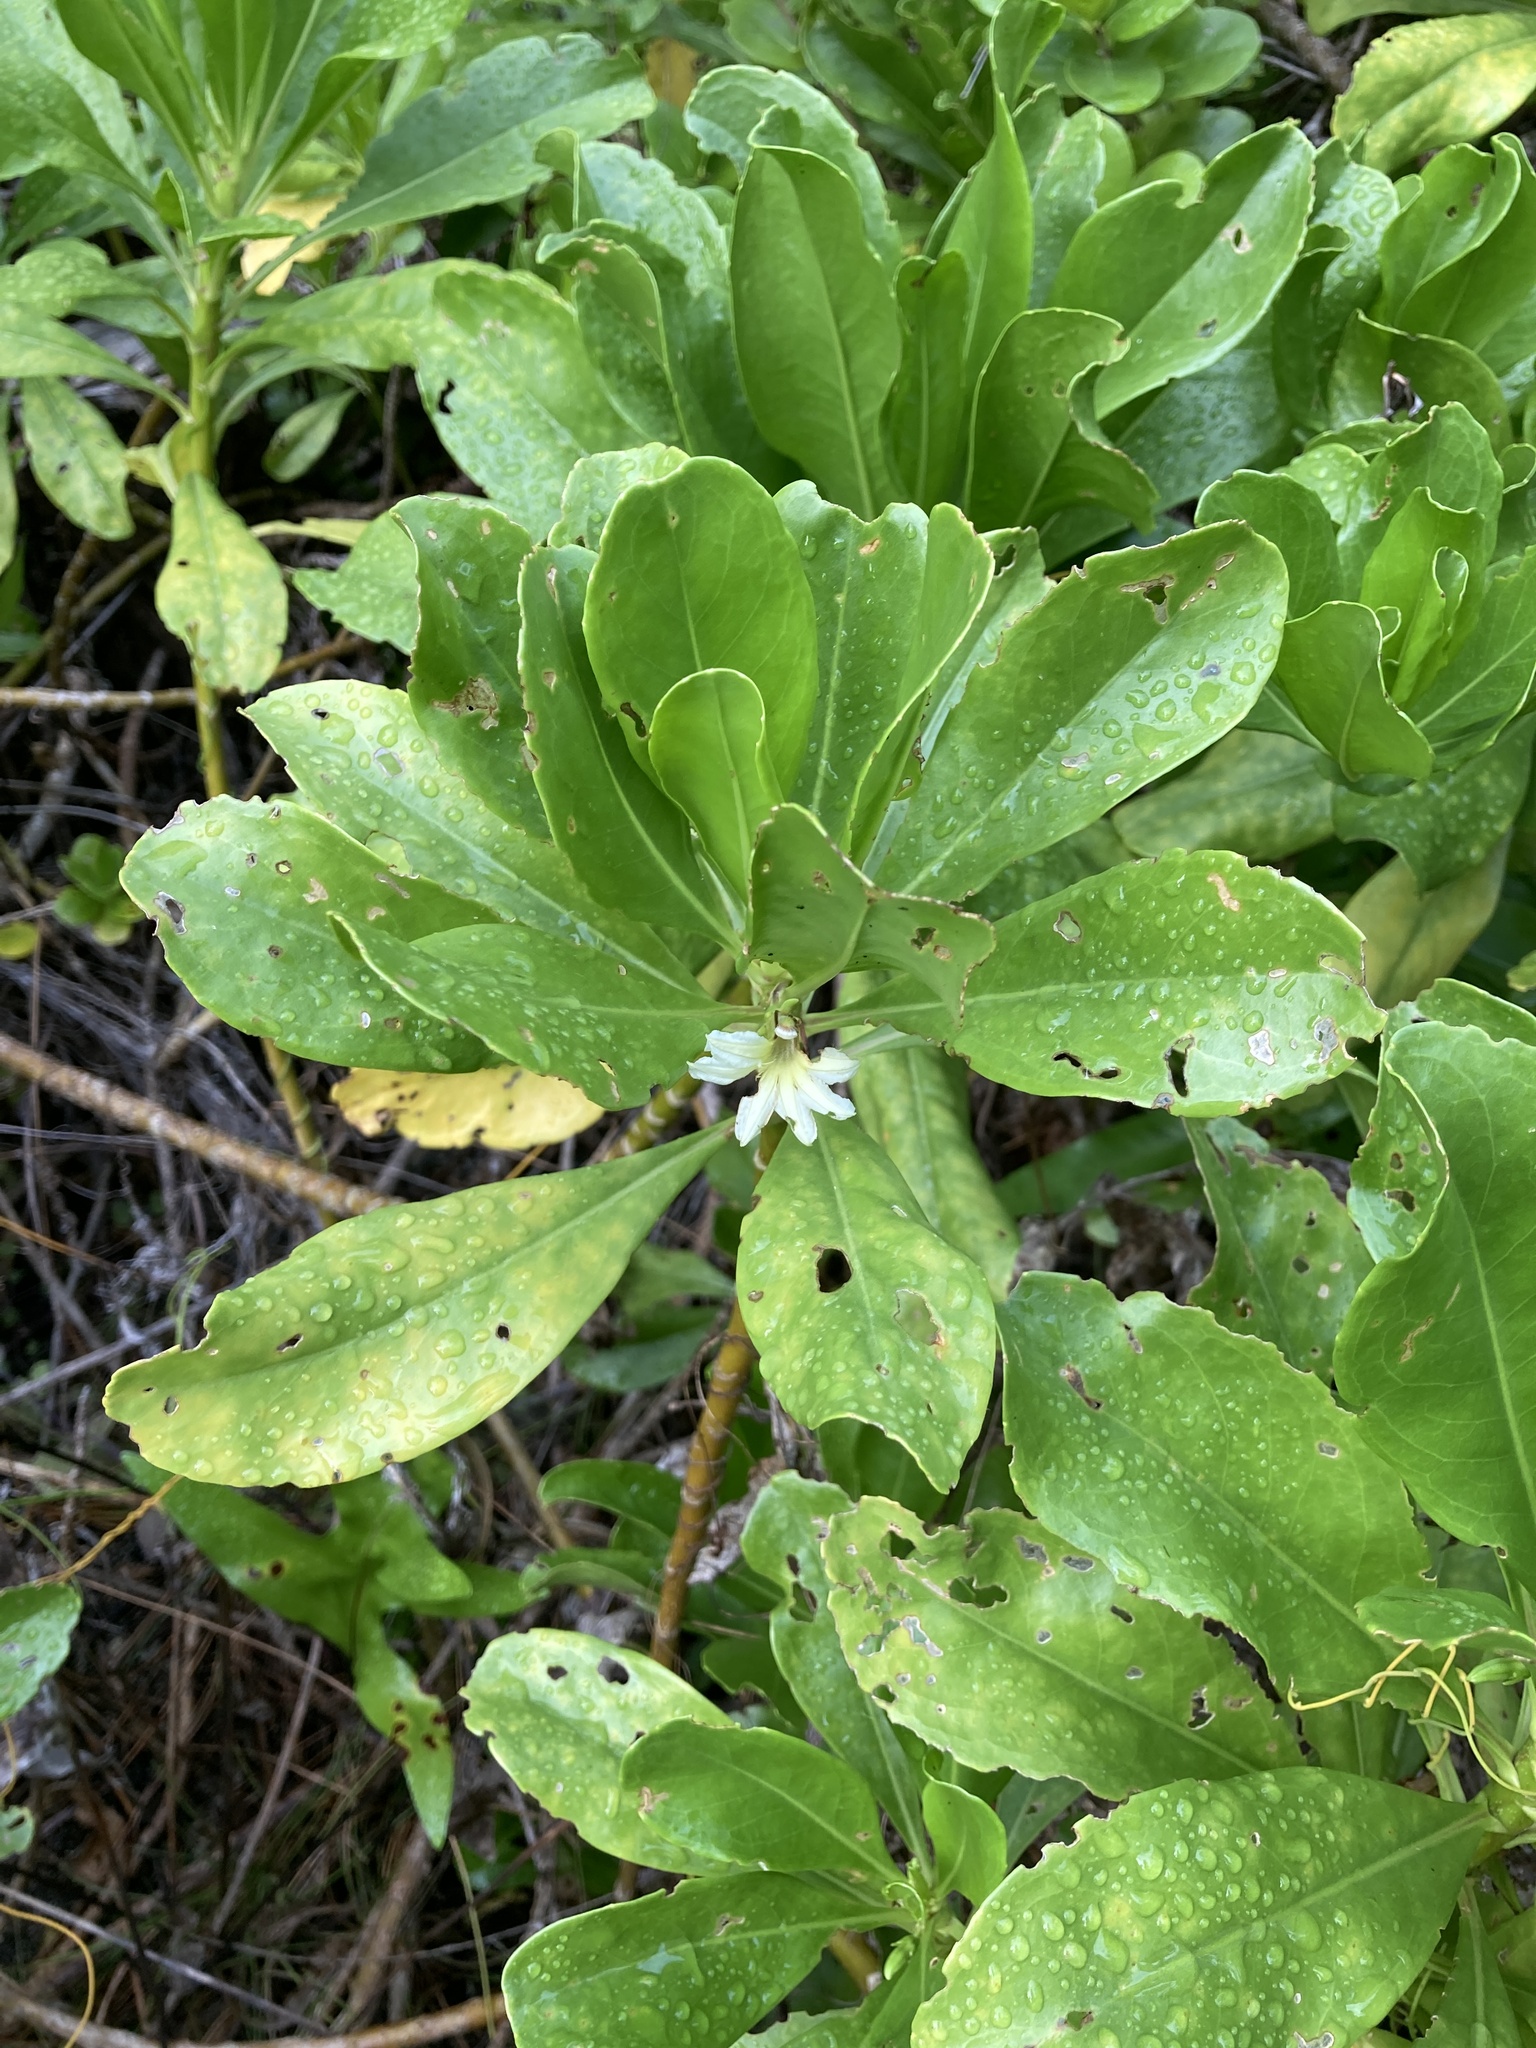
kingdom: Plantae
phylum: Tracheophyta
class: Magnoliopsida
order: Asterales
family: Goodeniaceae
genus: Scaevola
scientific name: Scaevola taccada
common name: Sea lettucetree
